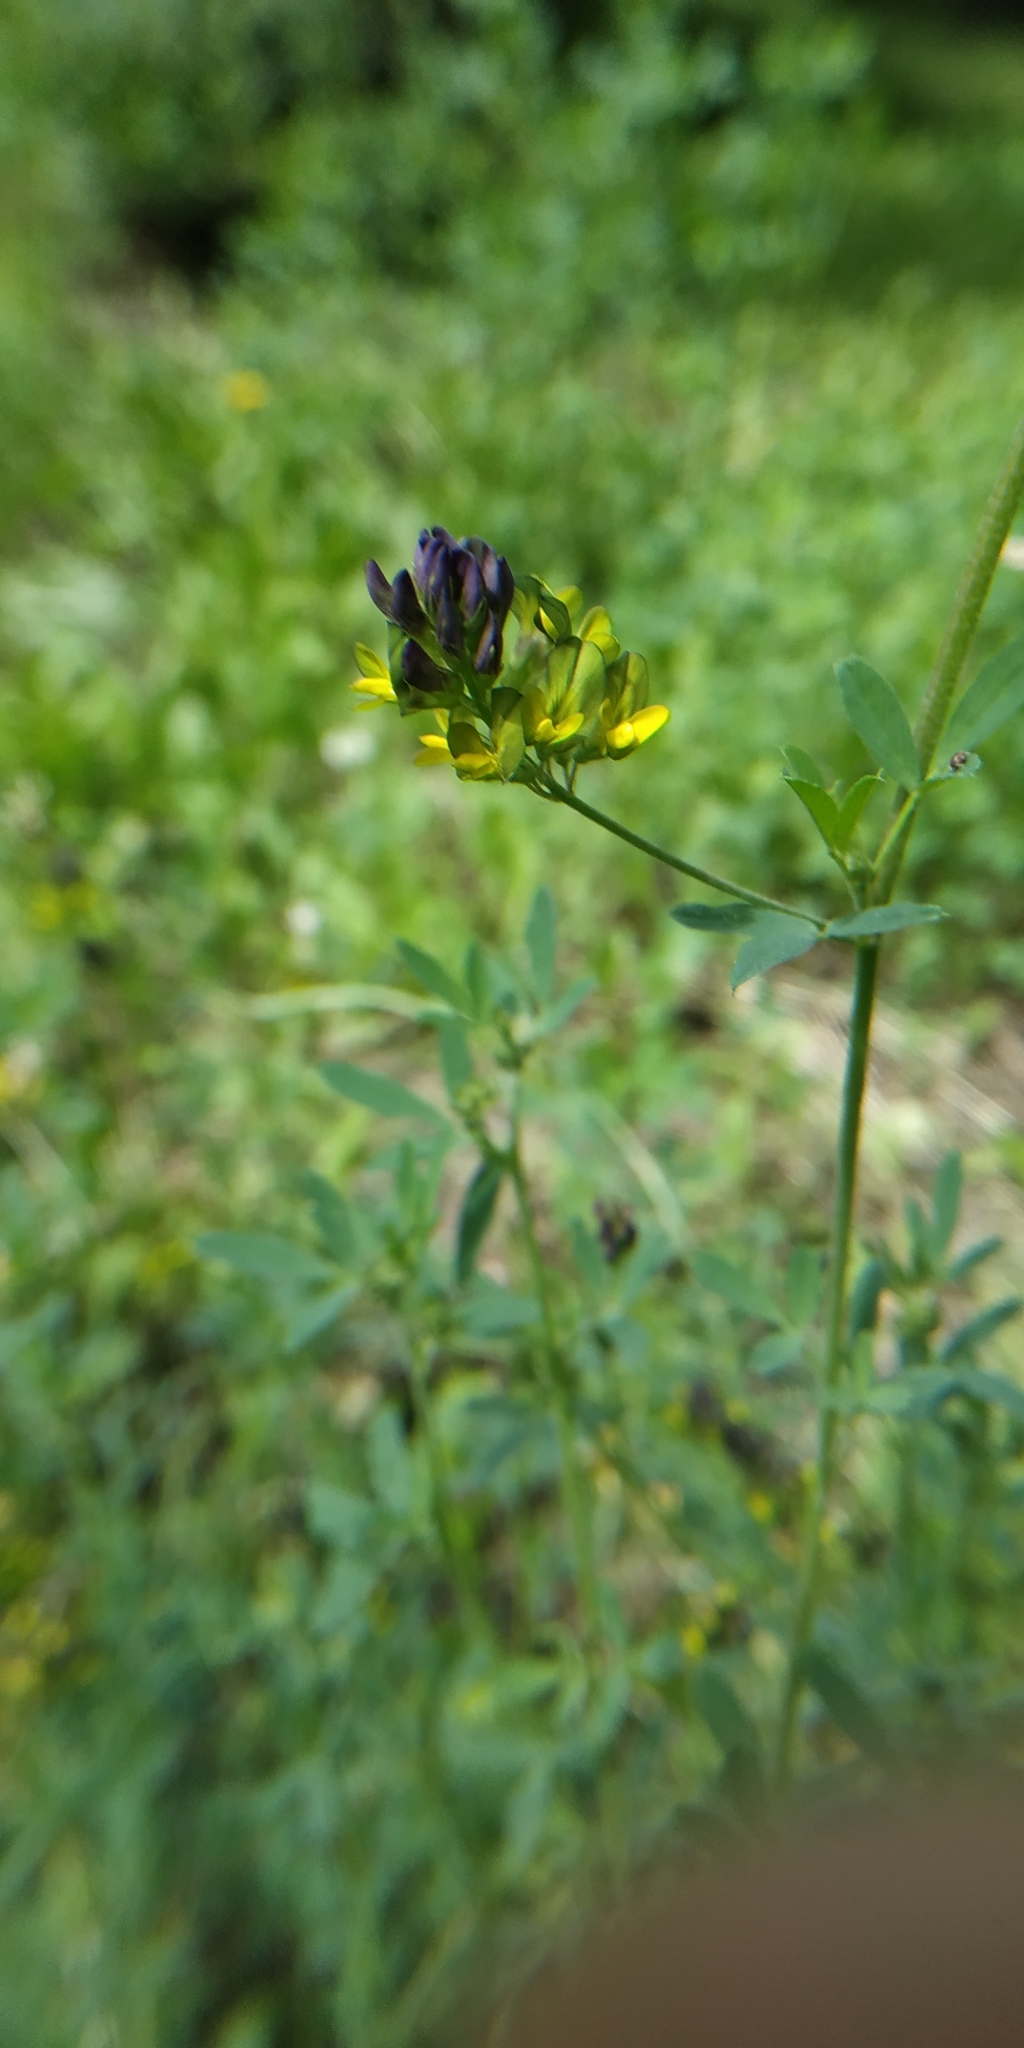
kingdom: Plantae
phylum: Tracheophyta
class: Magnoliopsida
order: Fabales
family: Fabaceae
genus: Medicago
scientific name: Medicago varia
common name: Sand lucerne
